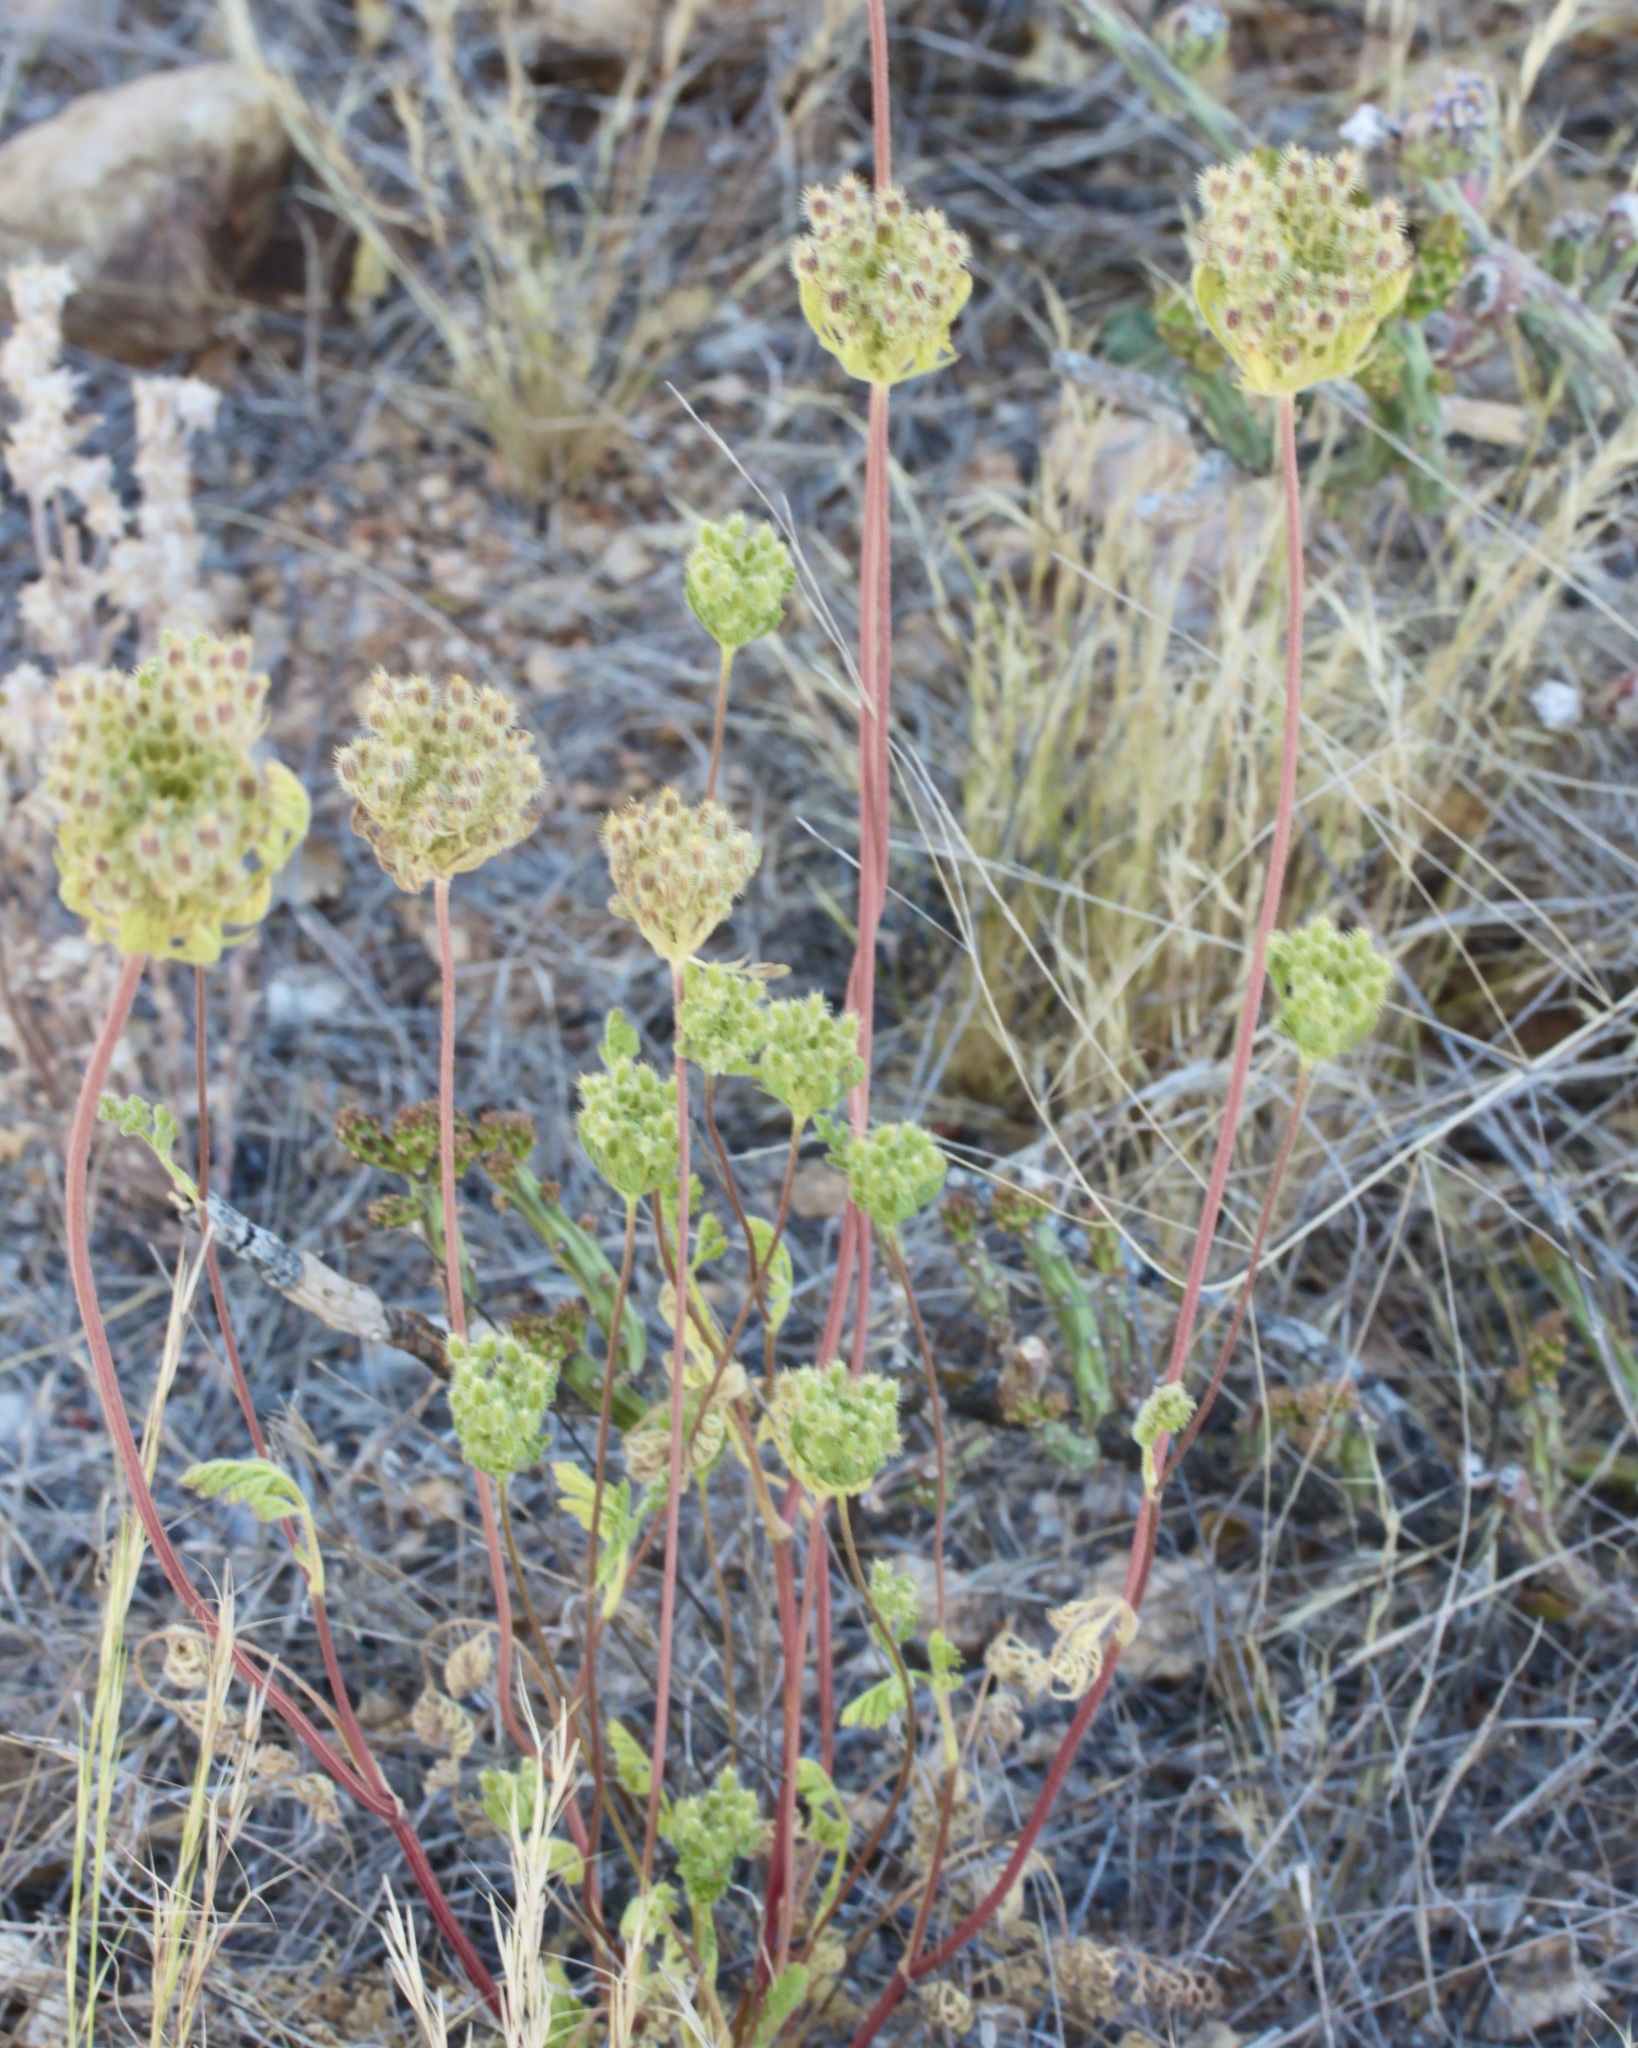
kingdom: Plantae
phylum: Tracheophyta
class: Magnoliopsida
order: Apiales
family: Apiaceae
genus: Daucus
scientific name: Daucus pusillus
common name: Southwest wild carrot
